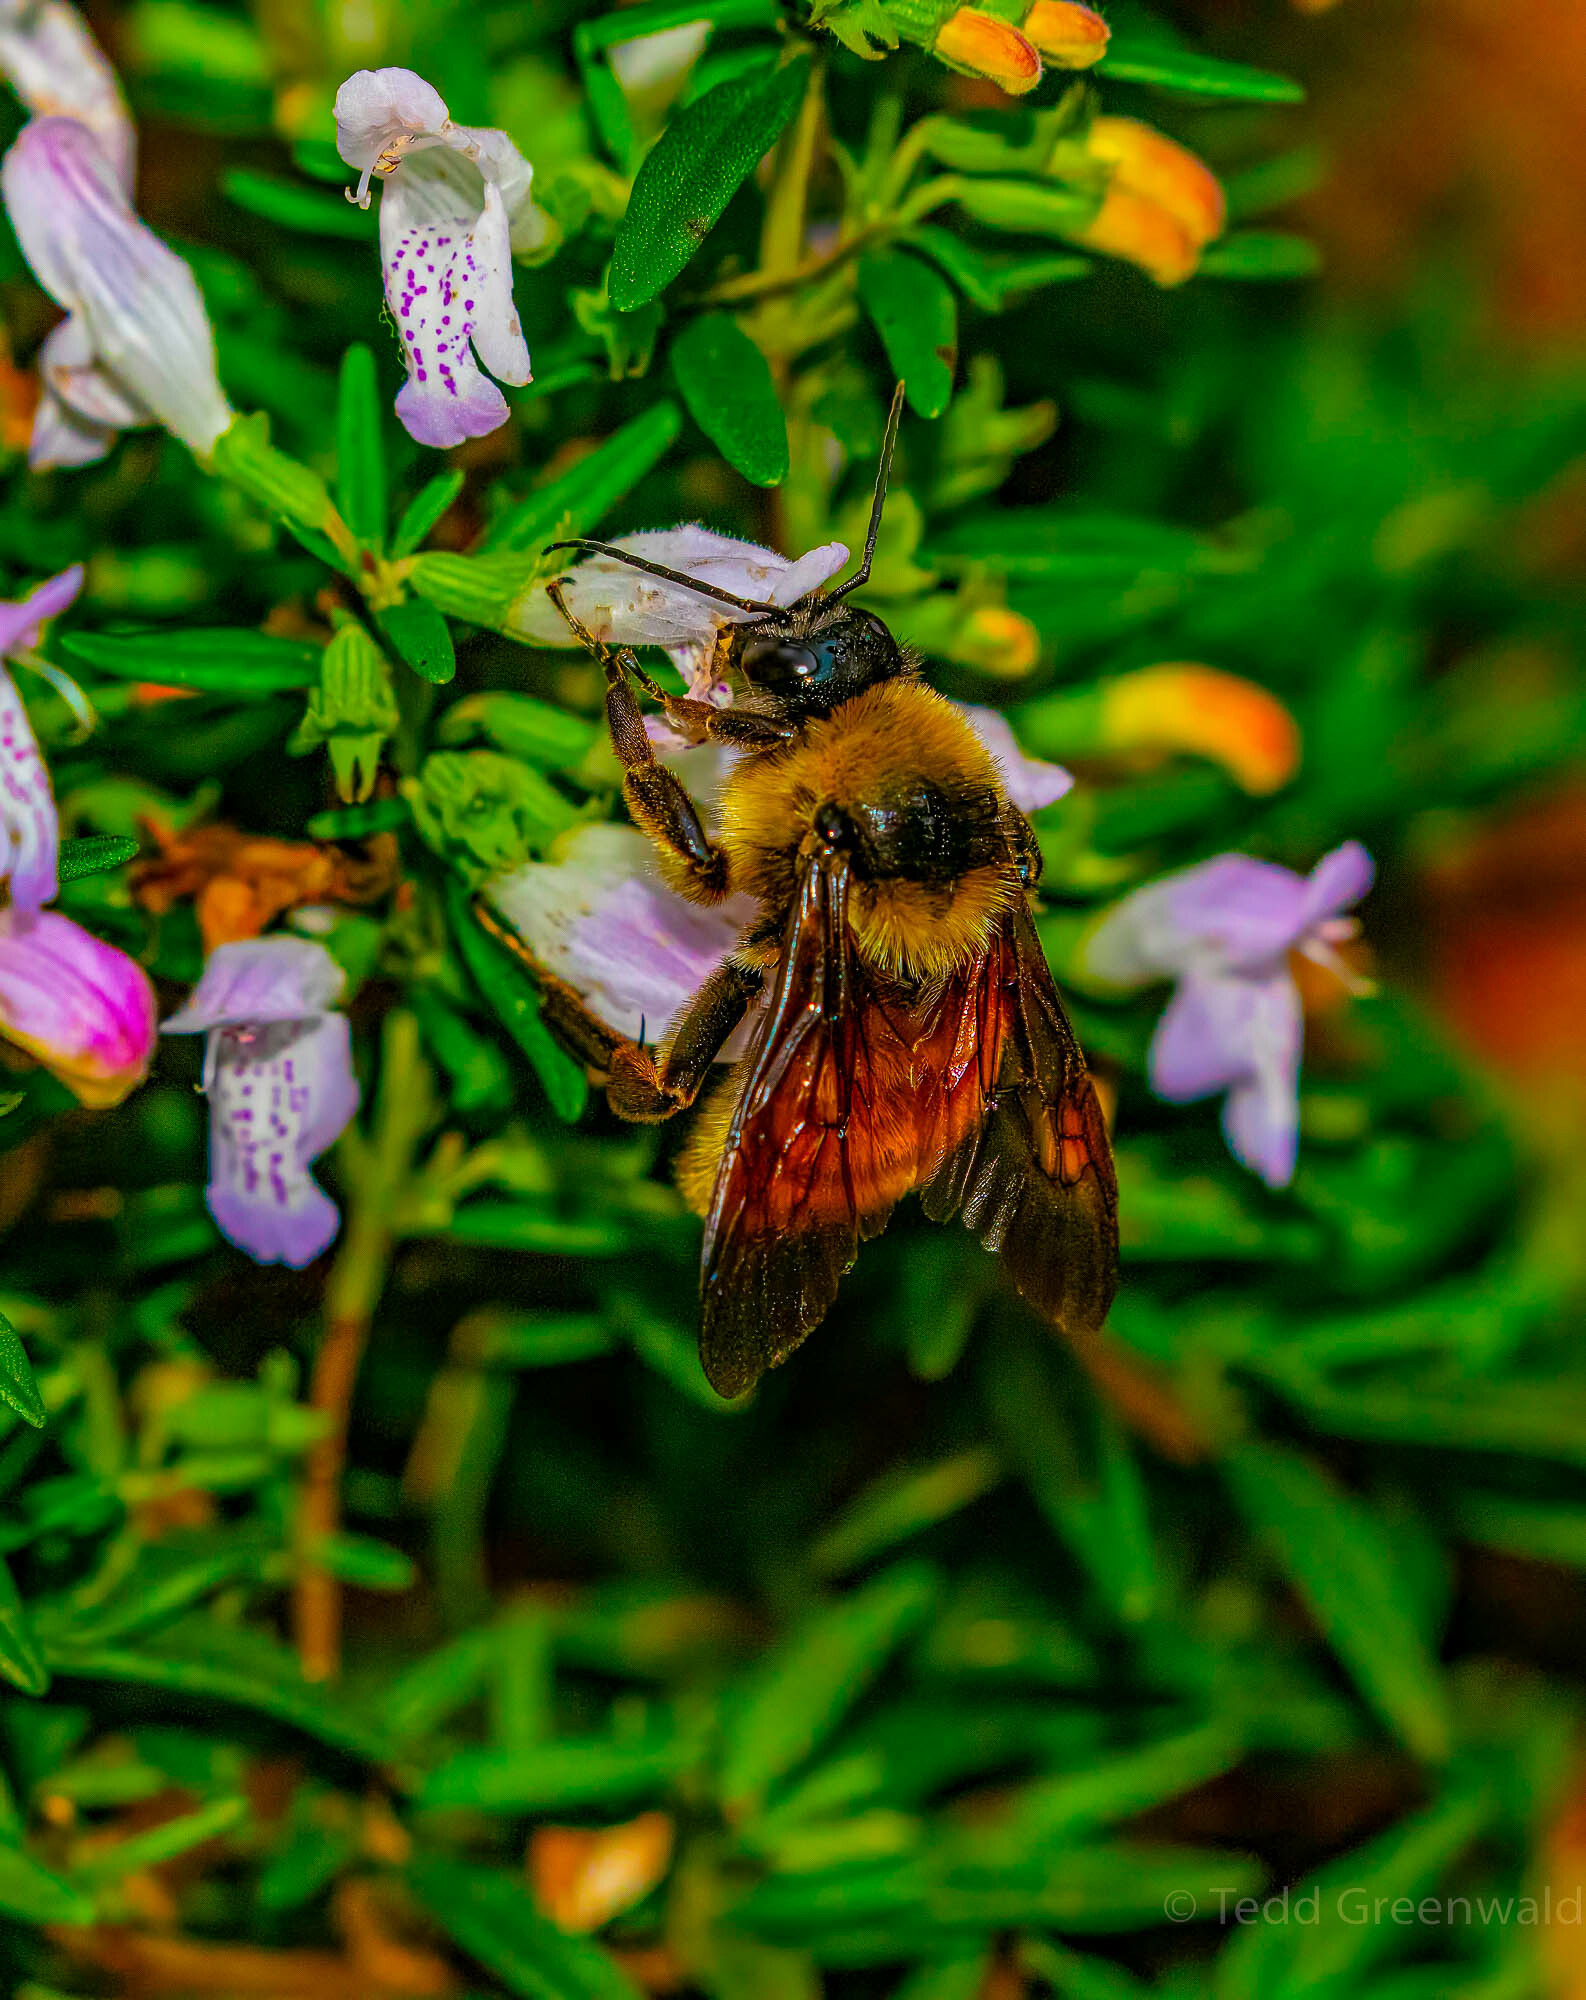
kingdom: Animalia
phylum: Arthropoda
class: Insecta
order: Hymenoptera
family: Apidae
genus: Bombus
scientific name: Bombus pensylvanicus
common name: Bumble bee
